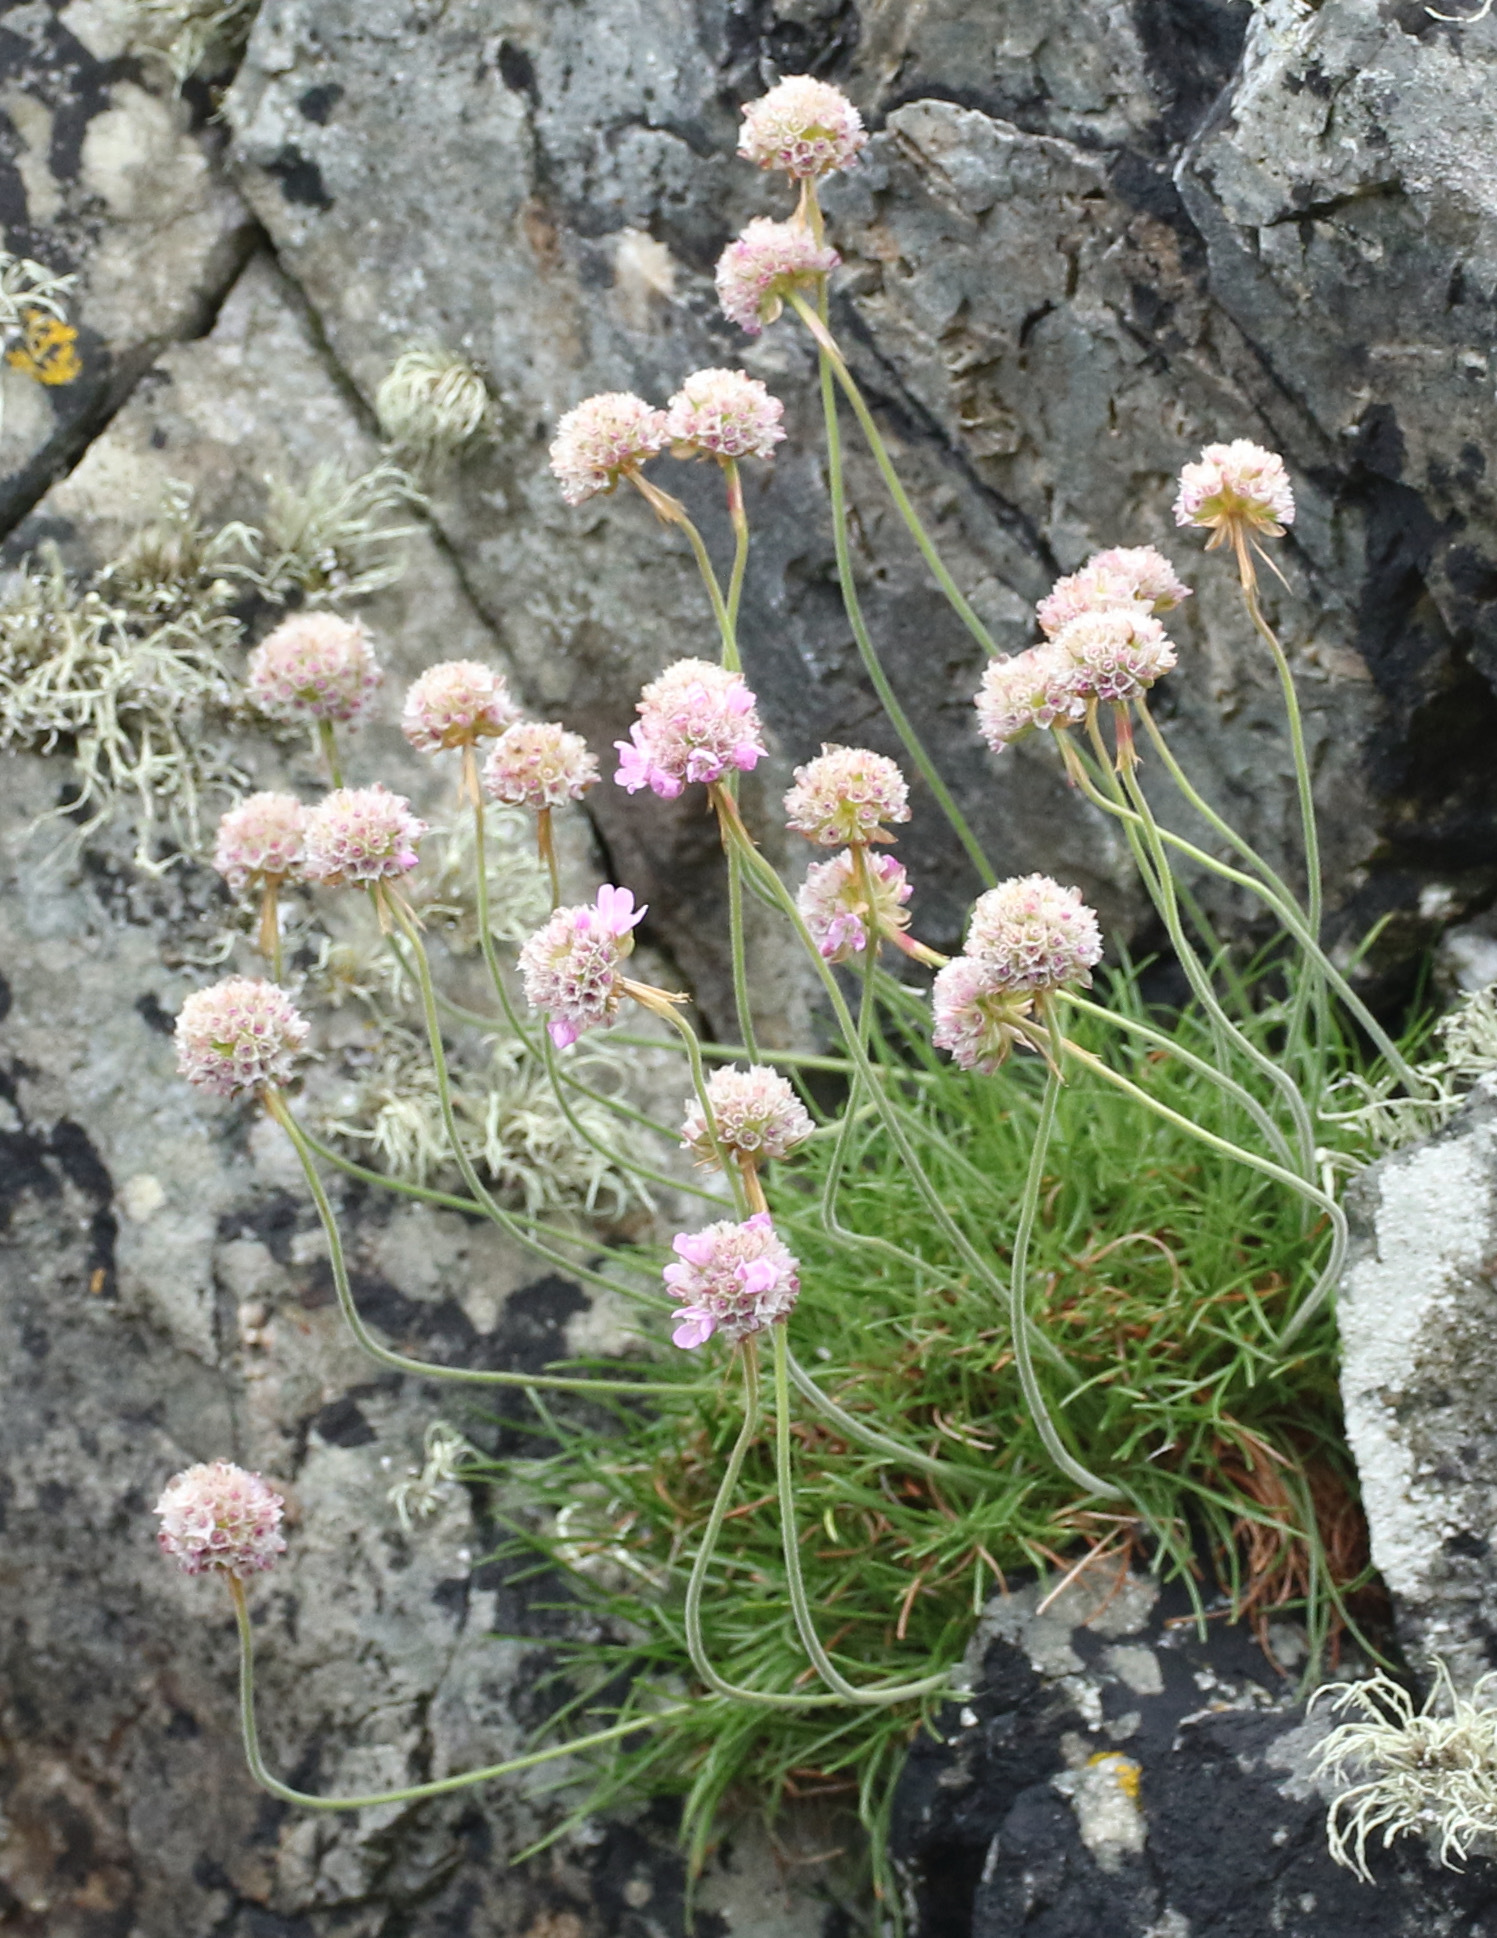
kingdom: Plantae
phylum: Tracheophyta
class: Magnoliopsida
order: Caryophyllales
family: Plumbaginaceae
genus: Armeria
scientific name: Armeria maritima
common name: Thrift
